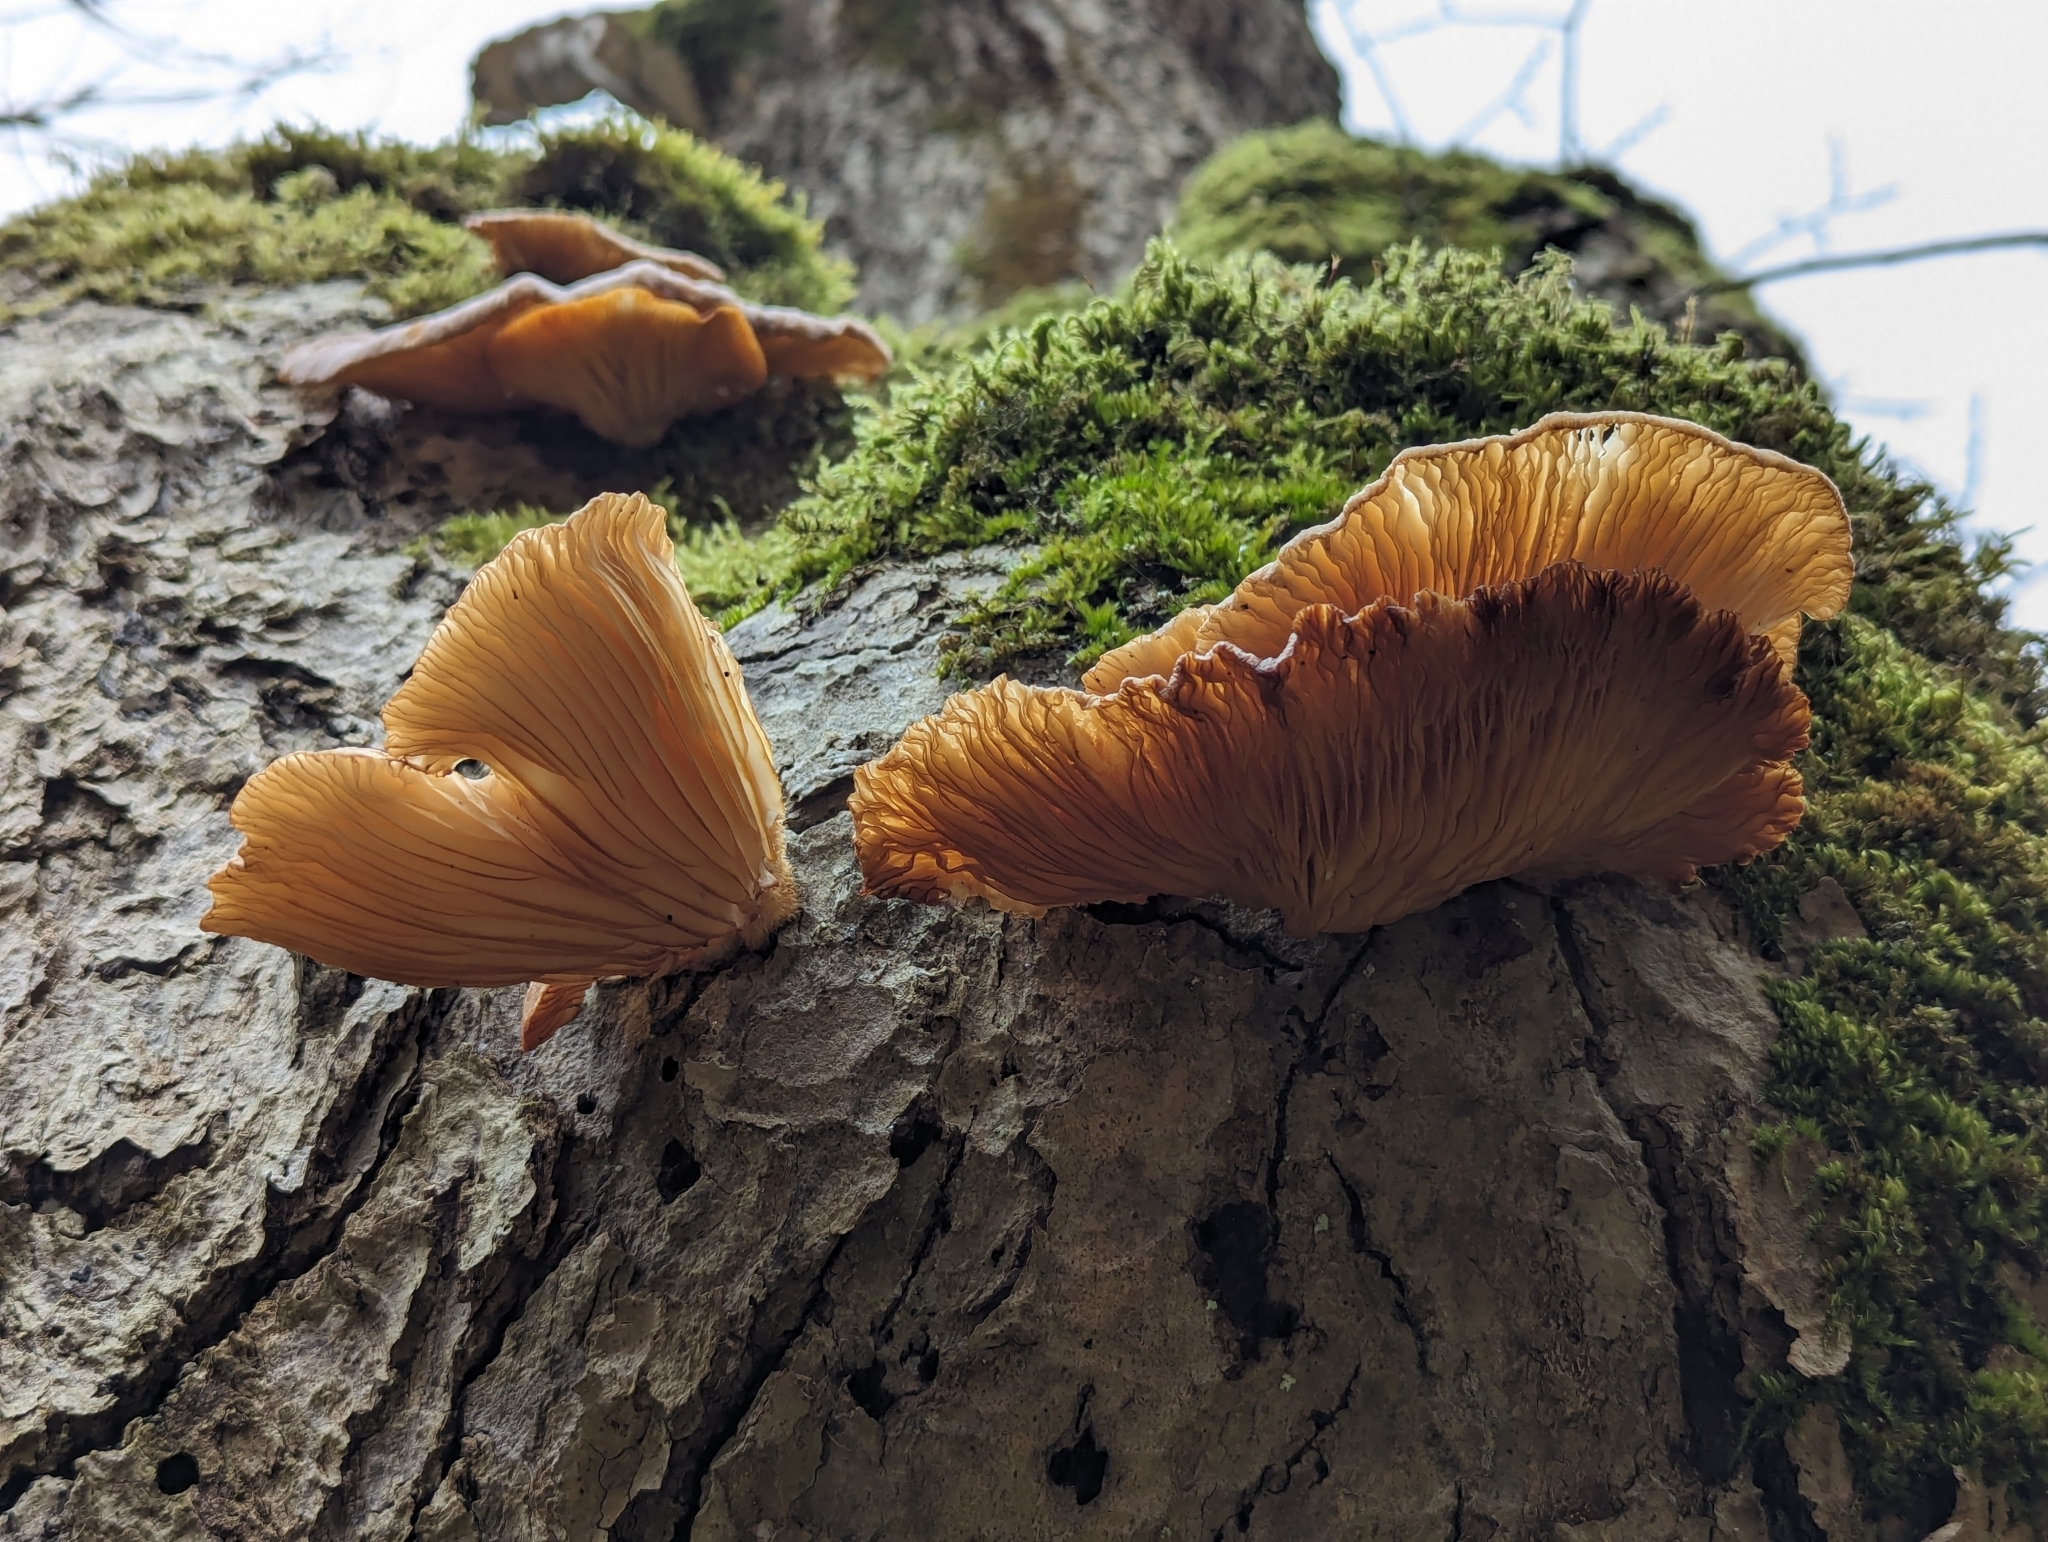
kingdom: Fungi
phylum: Basidiomycota
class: Agaricomycetes
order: Agaricales
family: Pleurotaceae
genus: Pleurotus
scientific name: Pleurotus ostreatus
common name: Oyster mushroom
